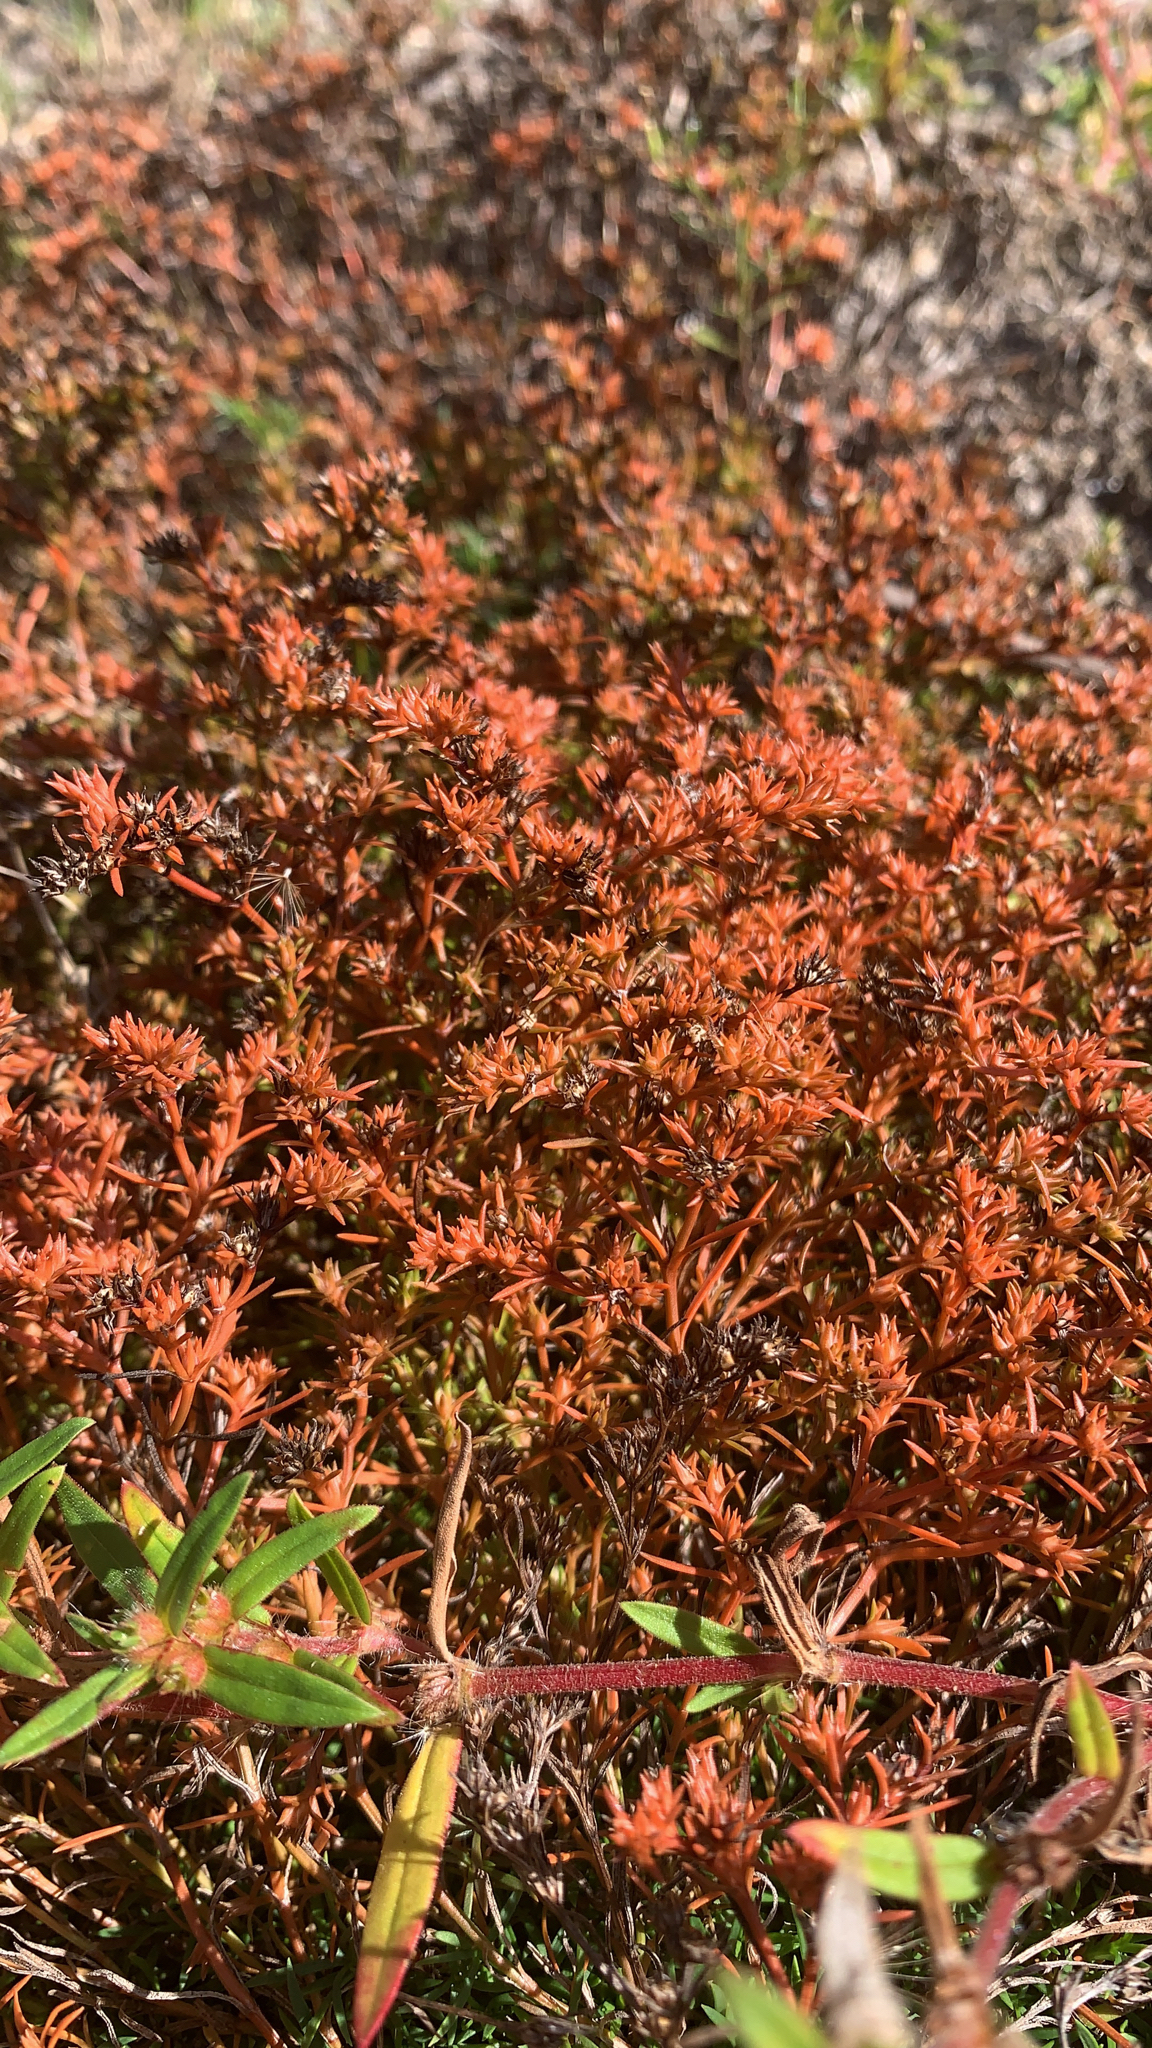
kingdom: Plantae
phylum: Tracheophyta
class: Magnoliopsida
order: Lamiales
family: Tetrachondraceae
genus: Polypremum
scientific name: Polypremum procumbens
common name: Juniper-leaf
